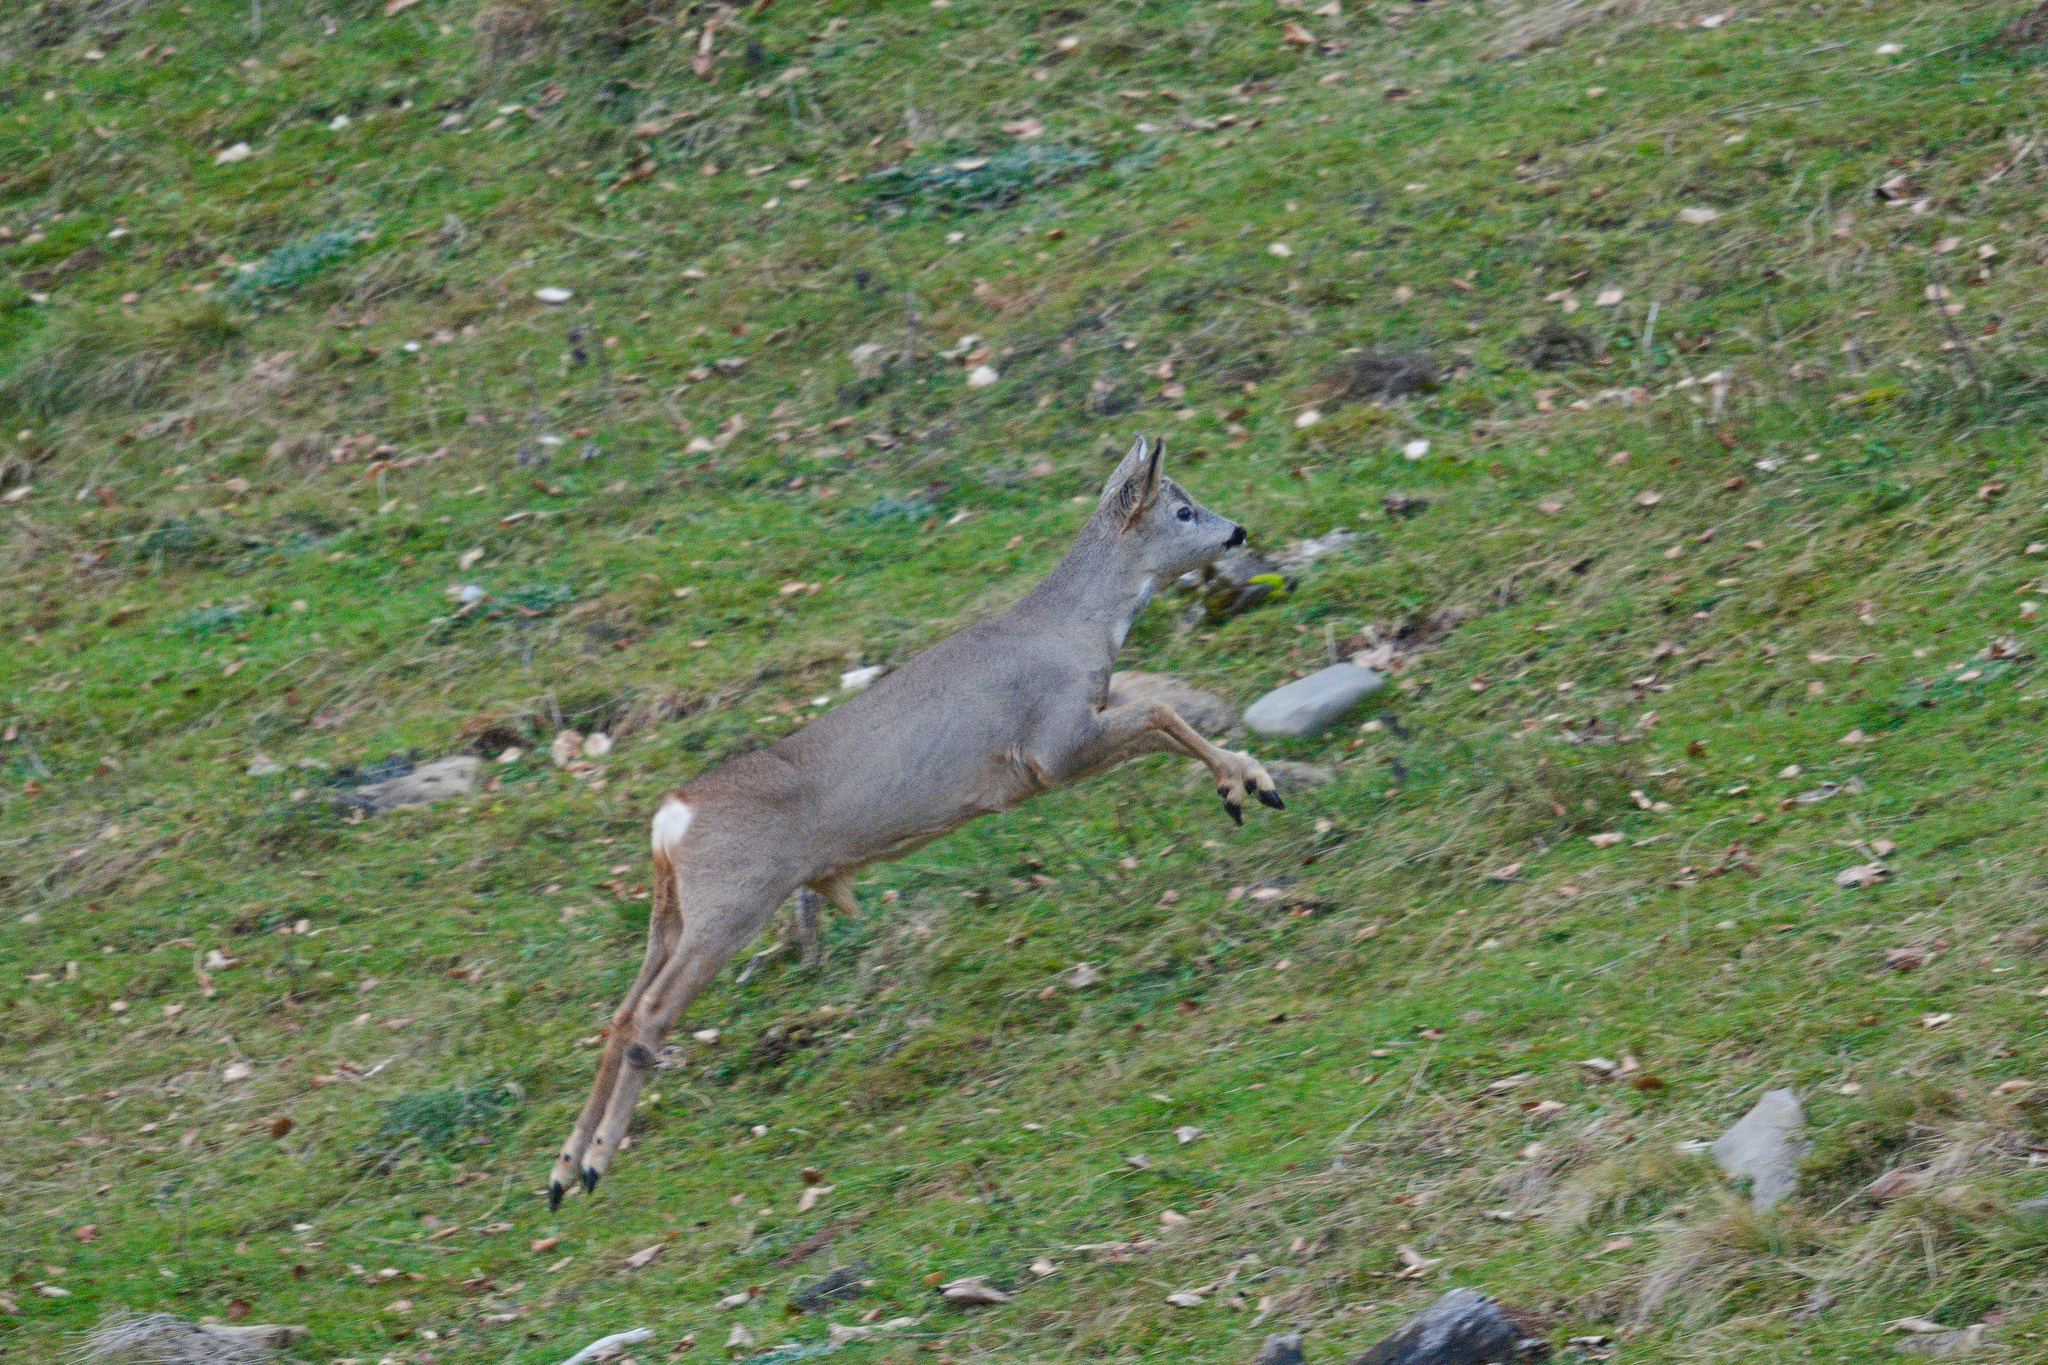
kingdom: Animalia
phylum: Chordata
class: Mammalia
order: Artiodactyla
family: Cervidae
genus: Capreolus
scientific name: Capreolus capreolus
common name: Western roe deer
